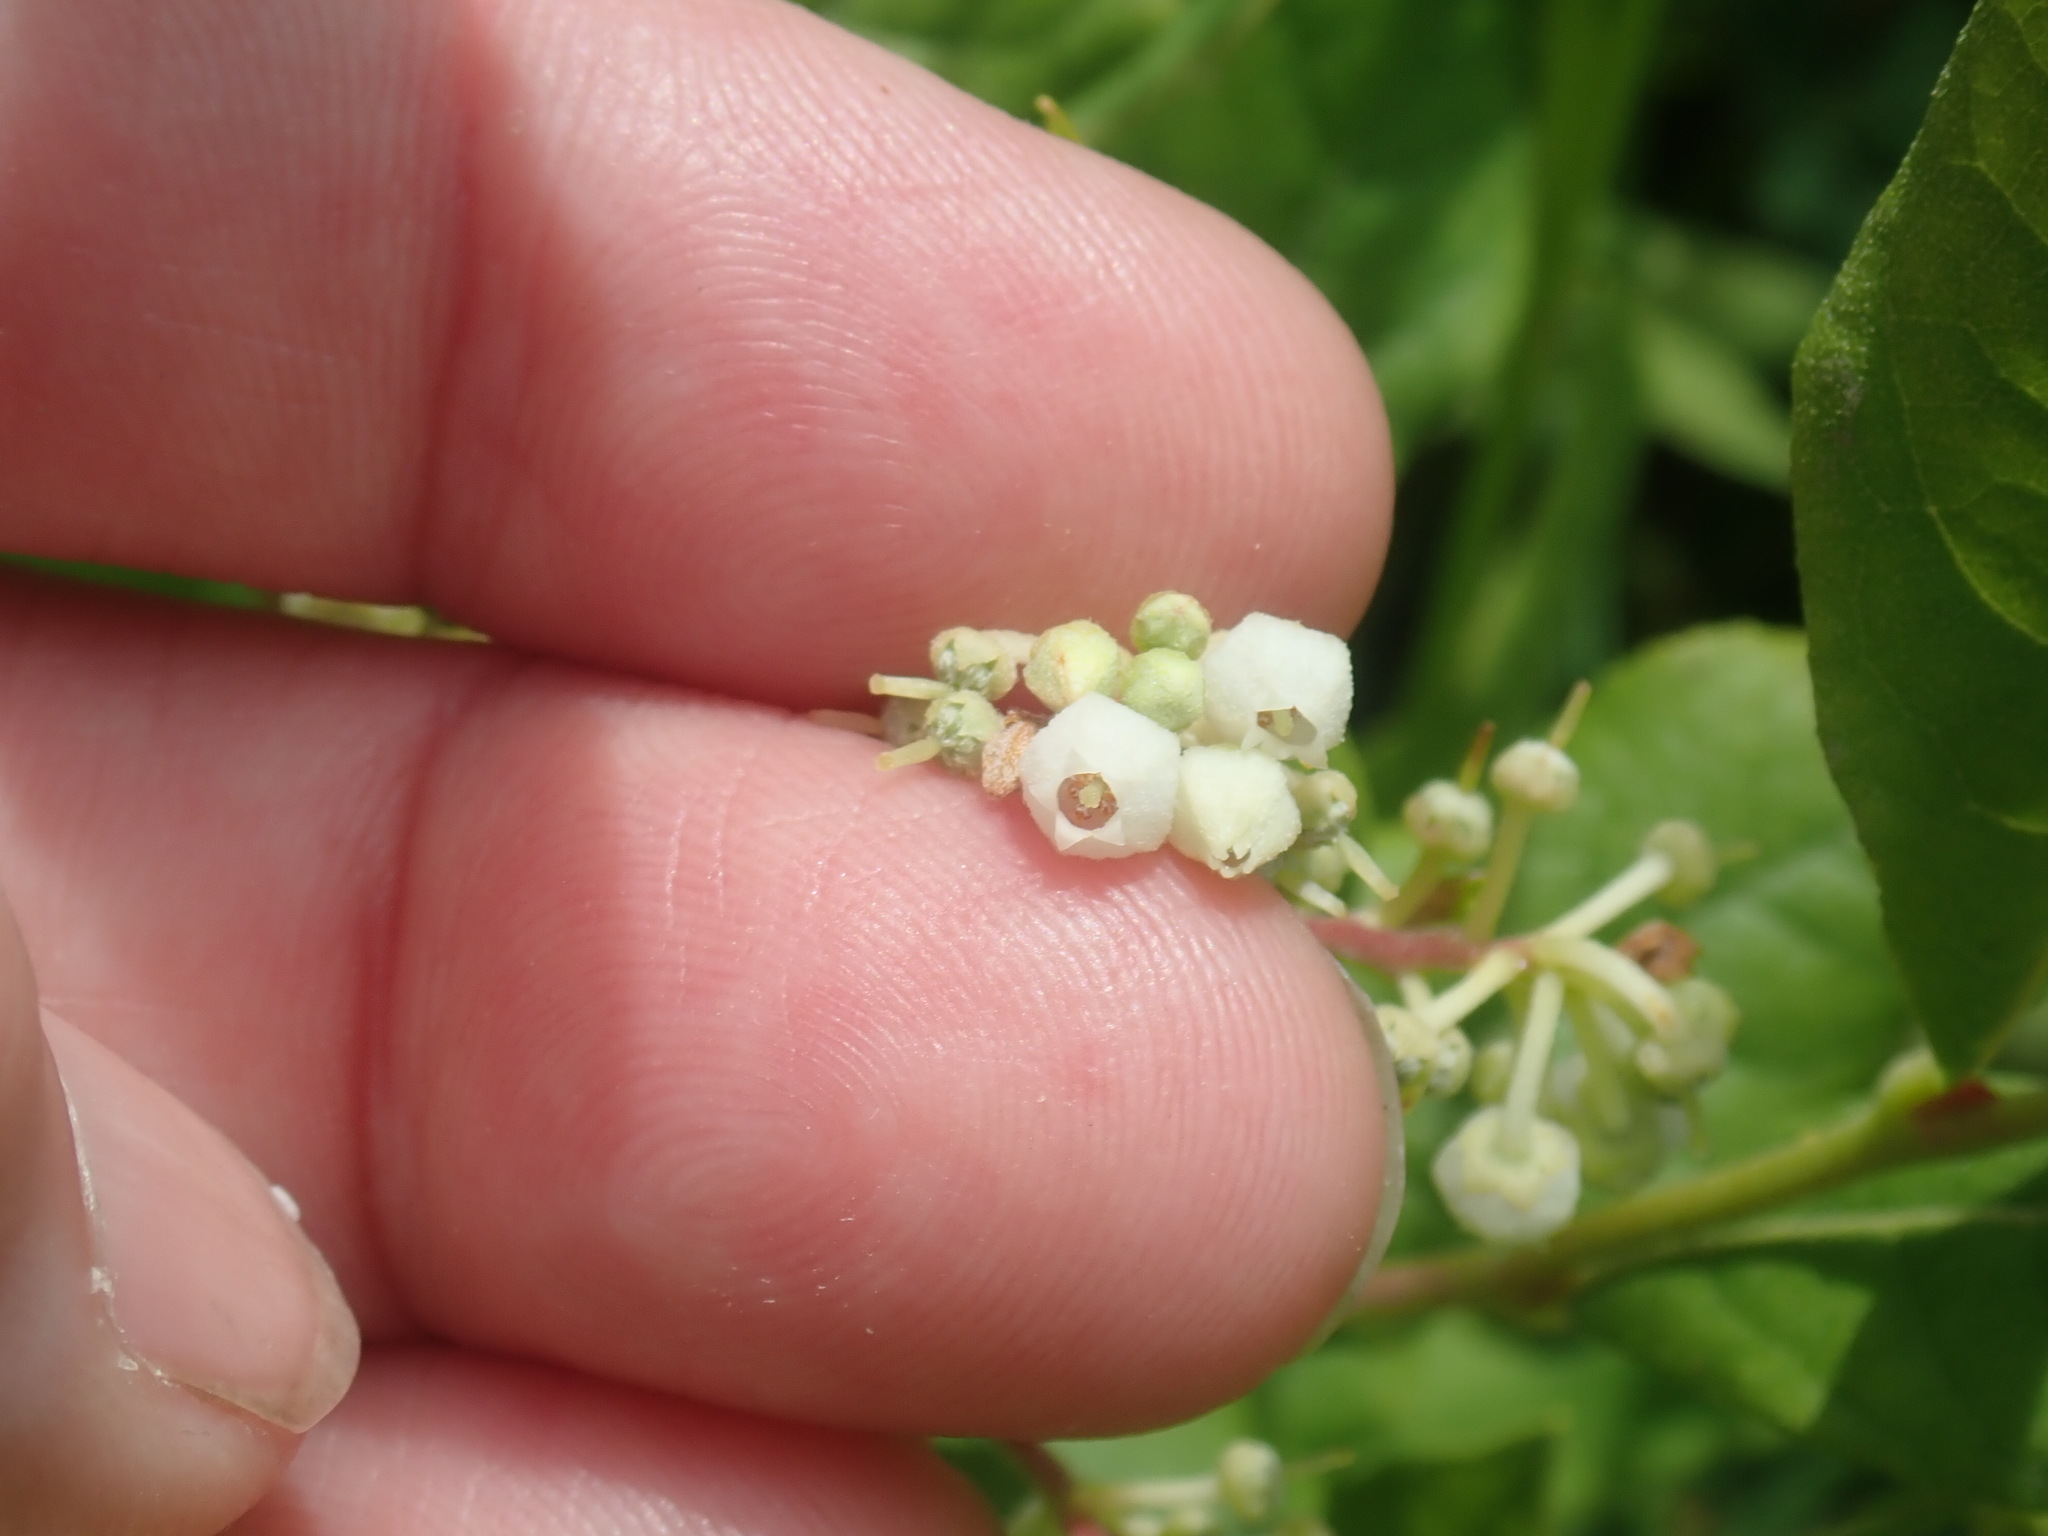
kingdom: Plantae
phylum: Tracheophyta
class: Magnoliopsida
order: Ericales
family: Ericaceae
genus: Lyonia
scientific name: Lyonia ligustrina
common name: Maleberry
